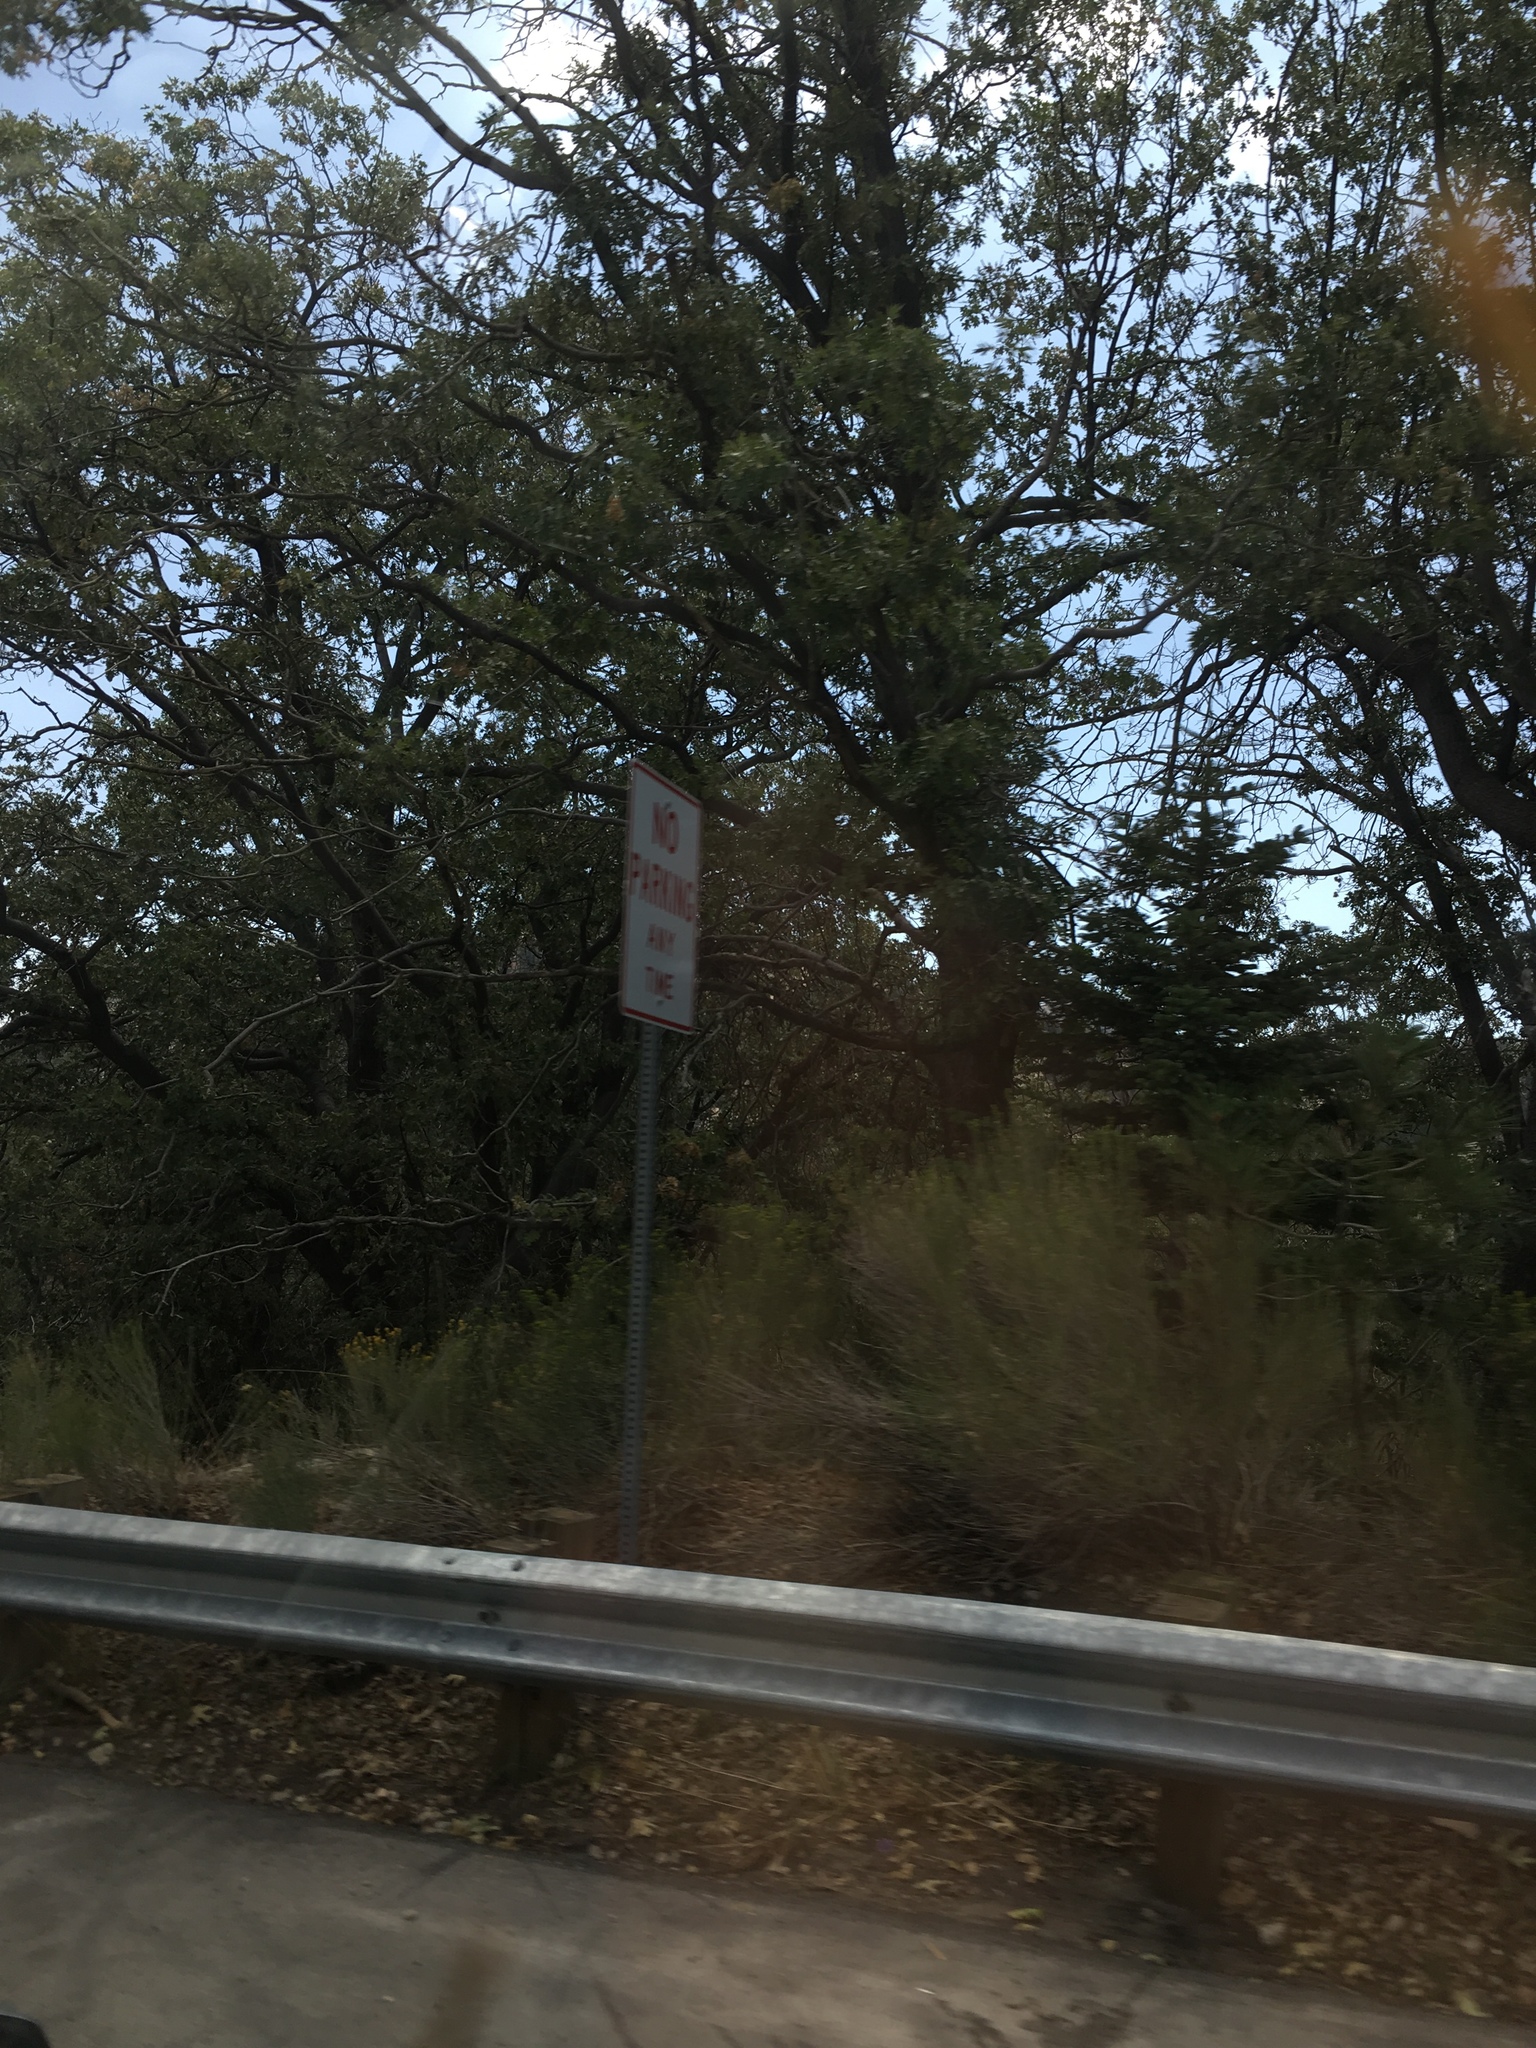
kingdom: Plantae
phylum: Tracheophyta
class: Magnoliopsida
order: Fagales
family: Fagaceae
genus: Quercus
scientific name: Quercus kelloggii
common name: California black oak
